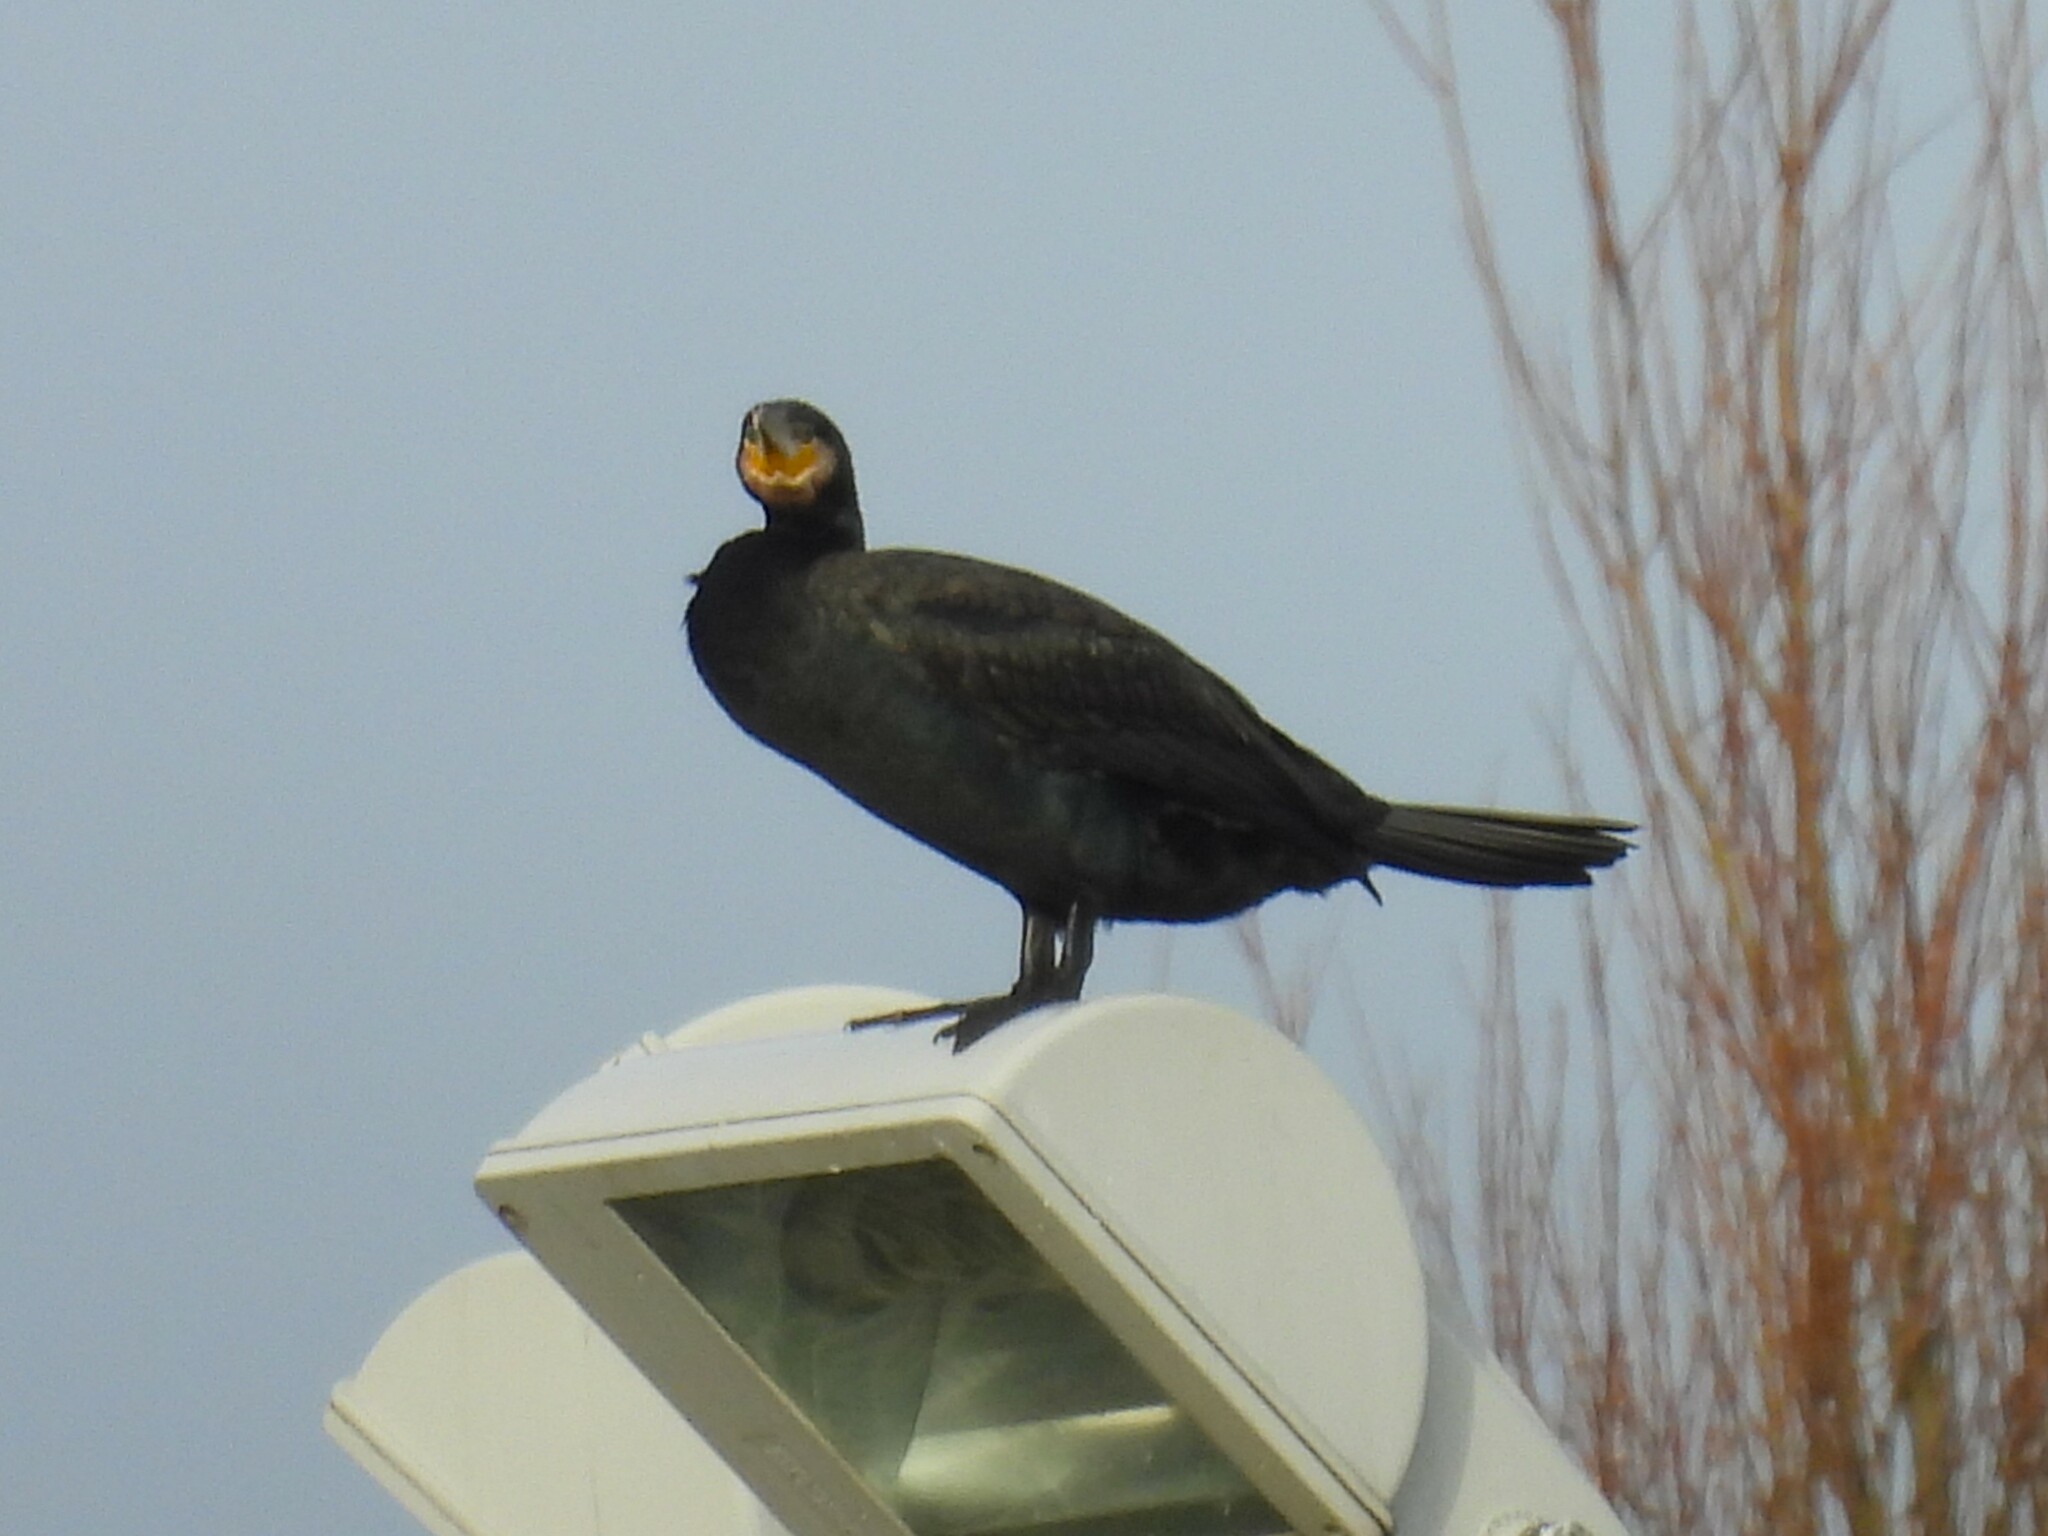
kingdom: Animalia
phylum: Chordata
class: Aves
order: Suliformes
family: Phalacrocoracidae
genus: Phalacrocorax
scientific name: Phalacrocorax carbo
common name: Great cormorant
